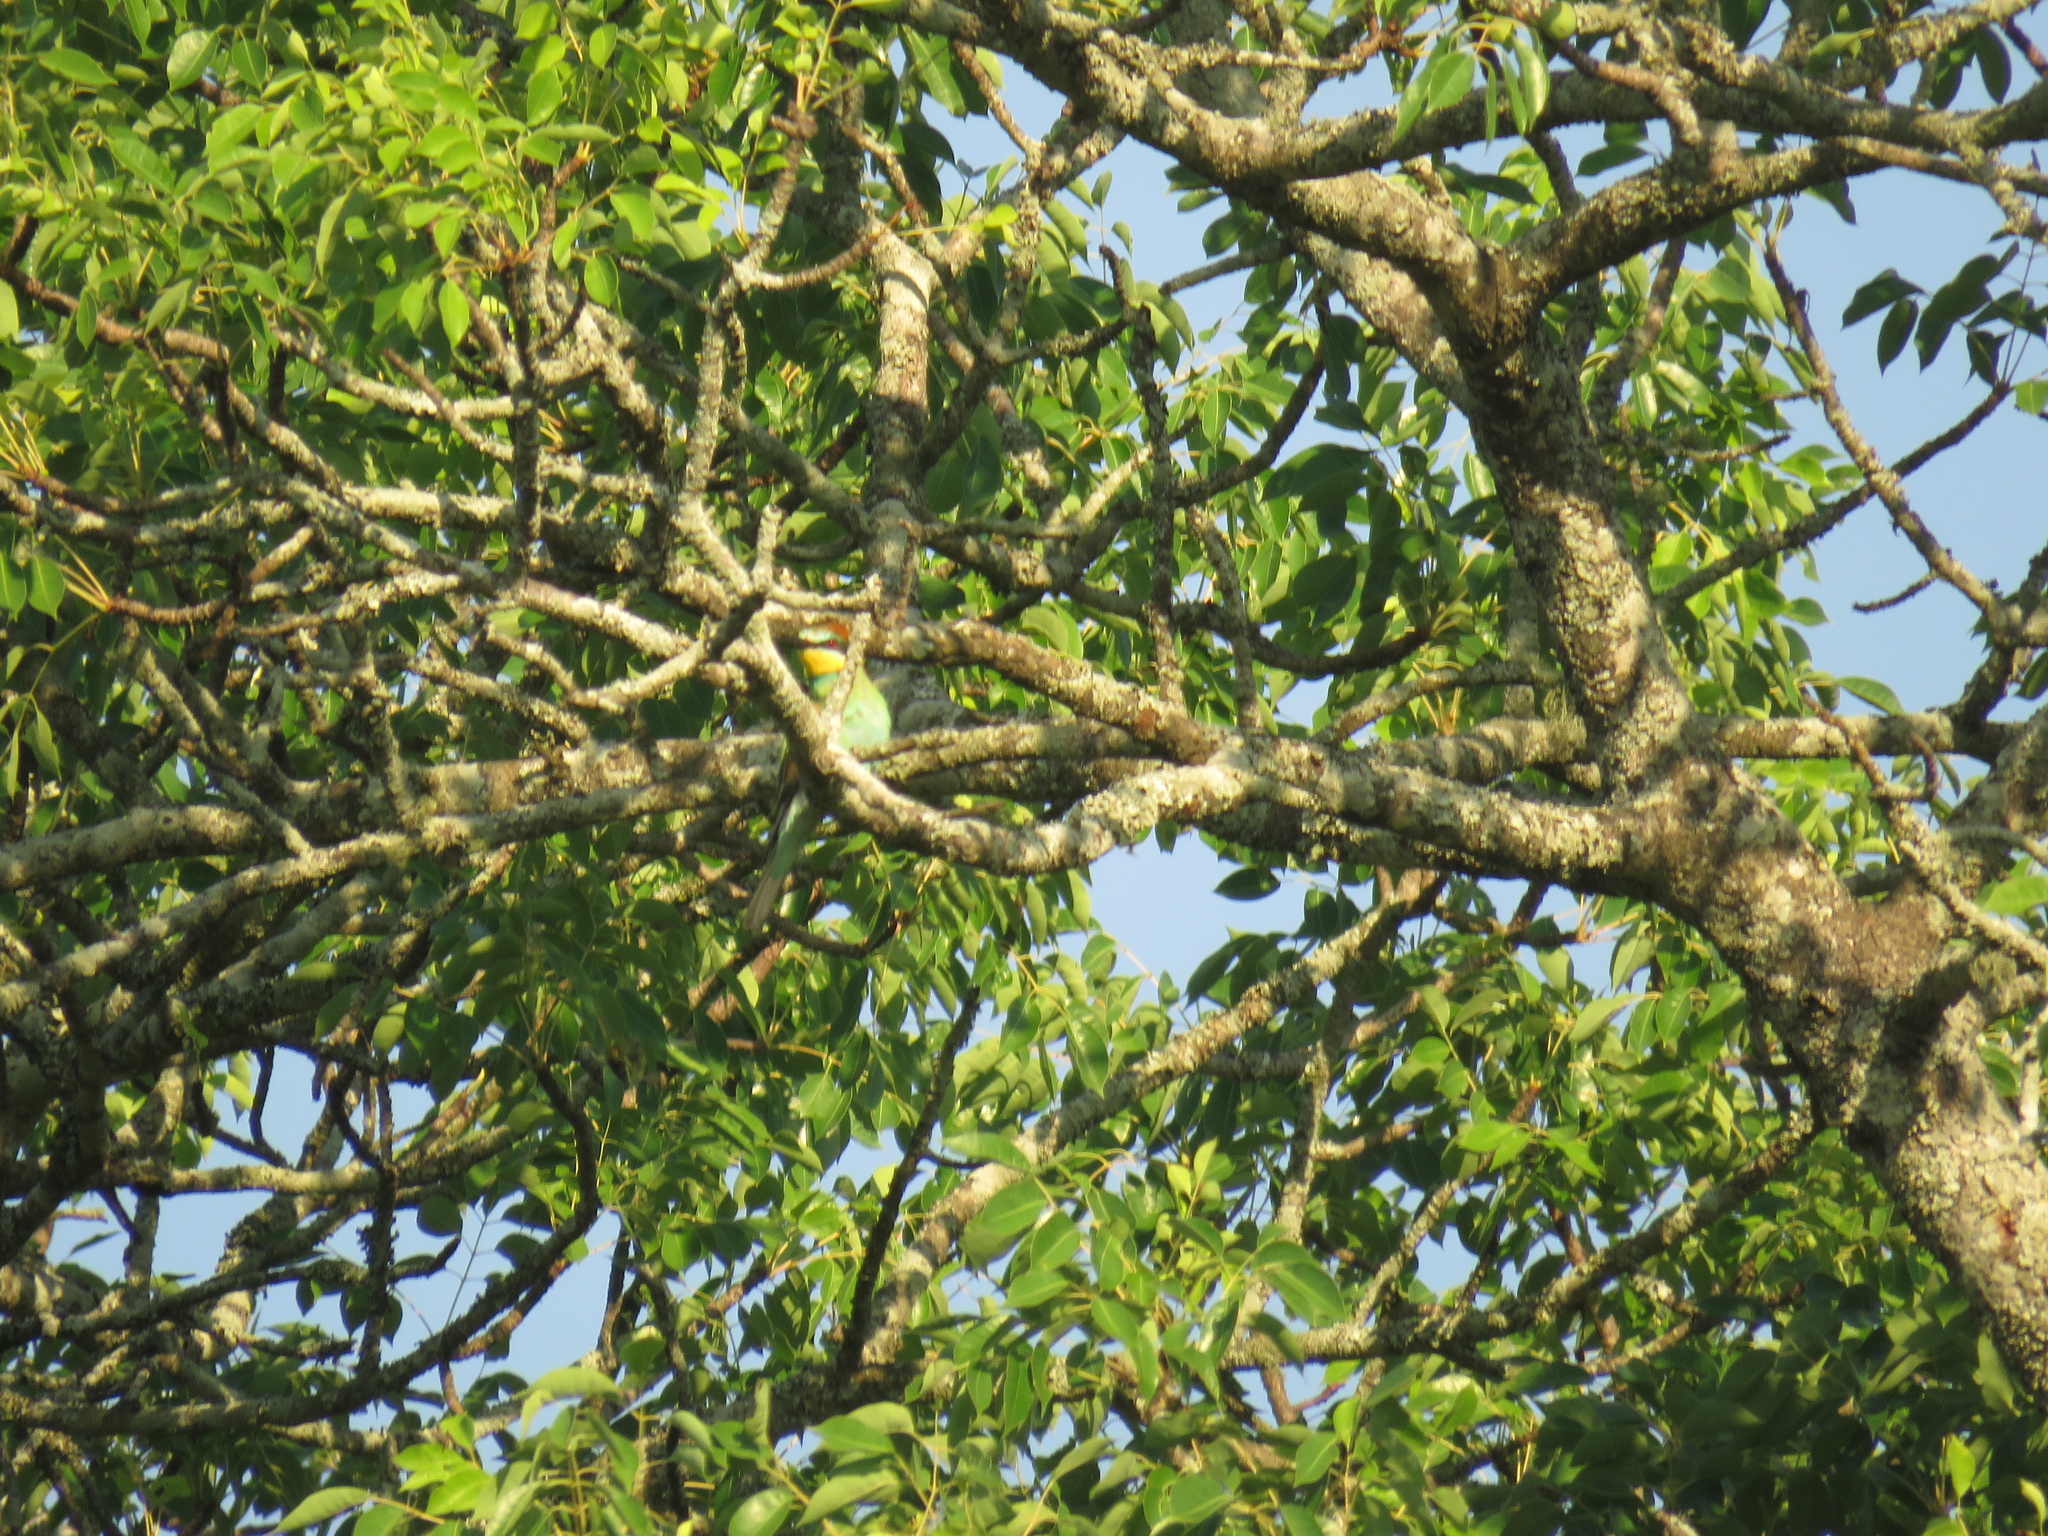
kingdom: Animalia
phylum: Chordata
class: Aves
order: Coraciiformes
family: Meropidae
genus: Merops
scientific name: Merops apiaster
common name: European bee-eater
